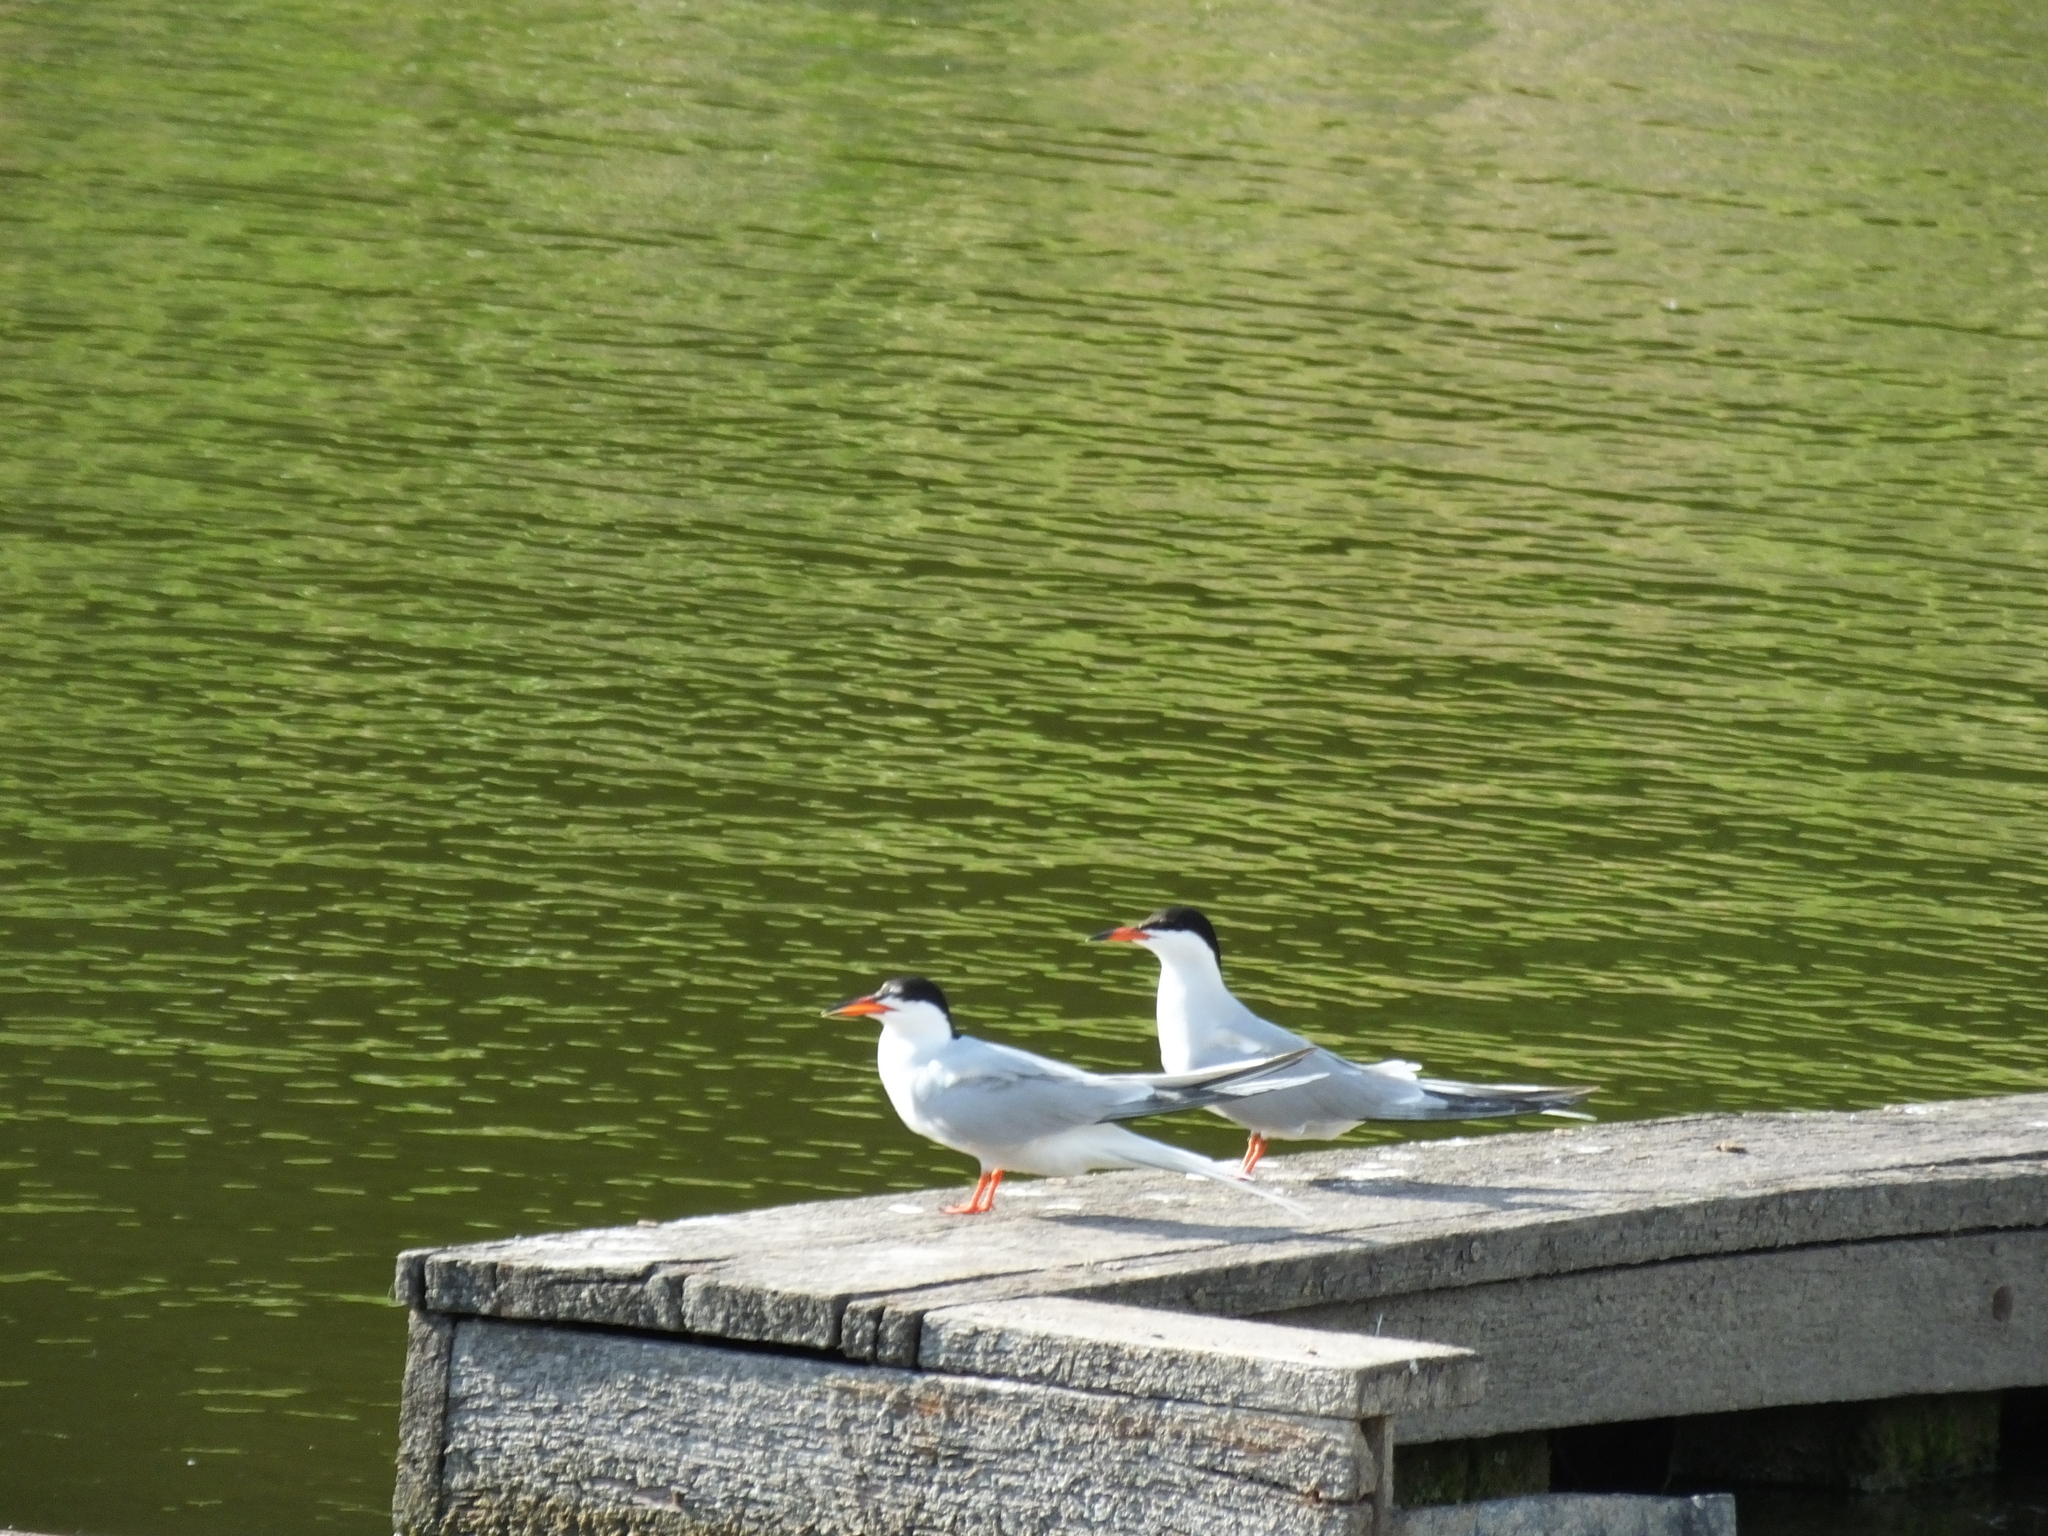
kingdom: Animalia
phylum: Chordata
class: Aves
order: Charadriiformes
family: Laridae
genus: Sterna
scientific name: Sterna hirundo
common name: Common tern
